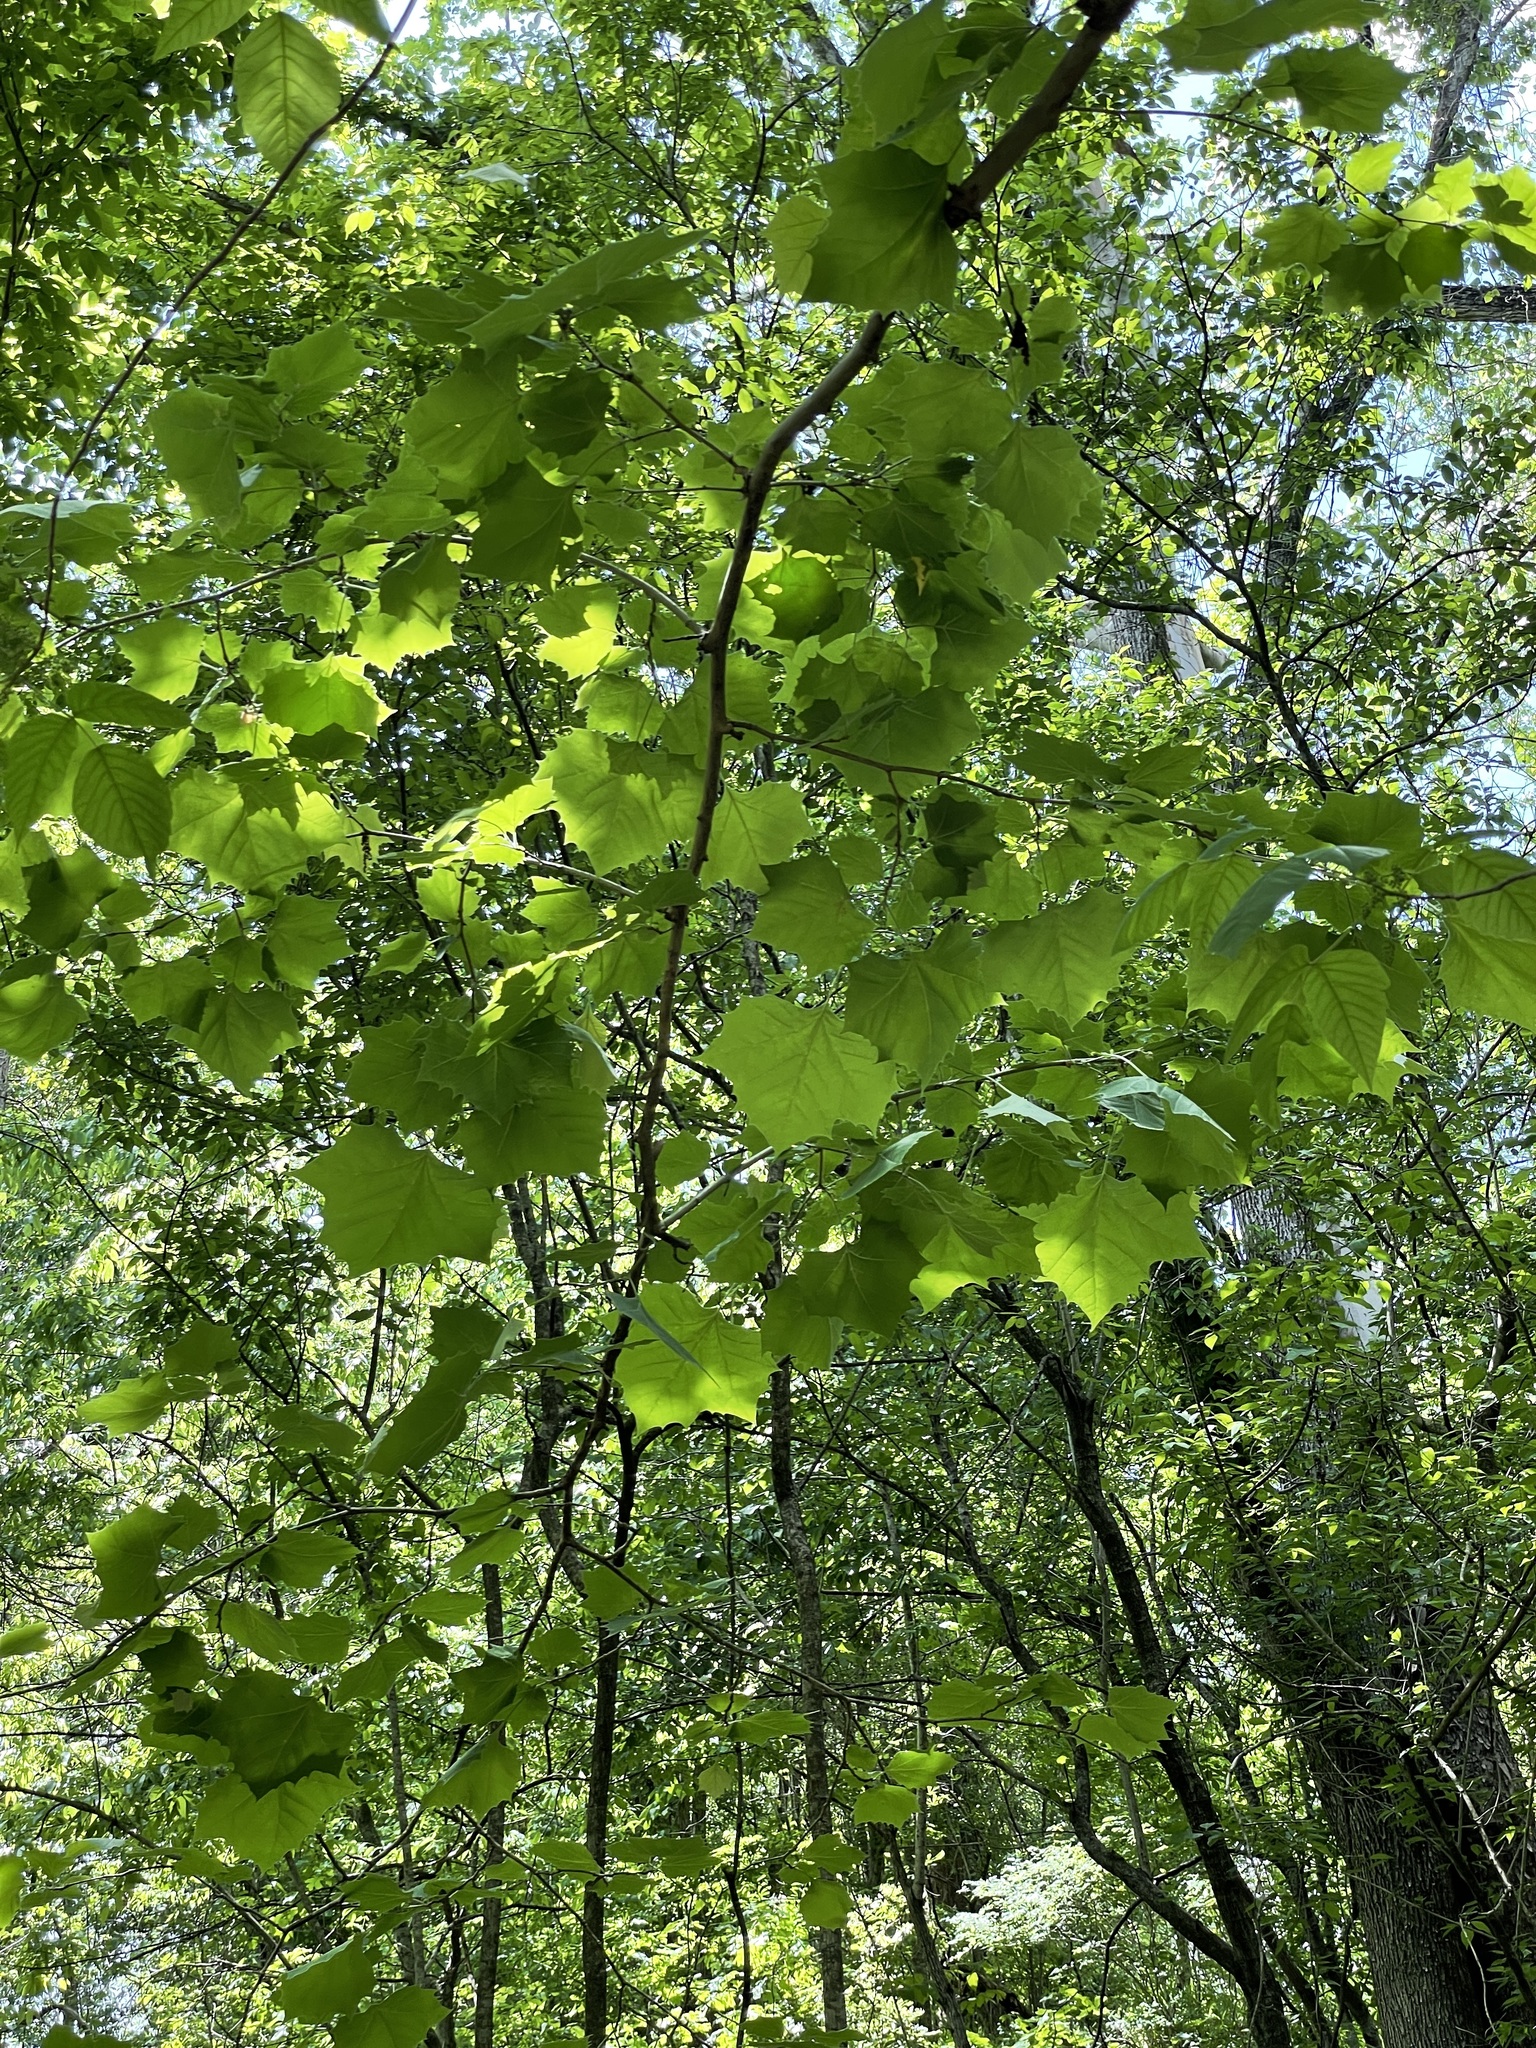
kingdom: Plantae
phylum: Tracheophyta
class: Magnoliopsida
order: Proteales
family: Platanaceae
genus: Platanus
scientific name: Platanus occidentalis
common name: American sycamore
